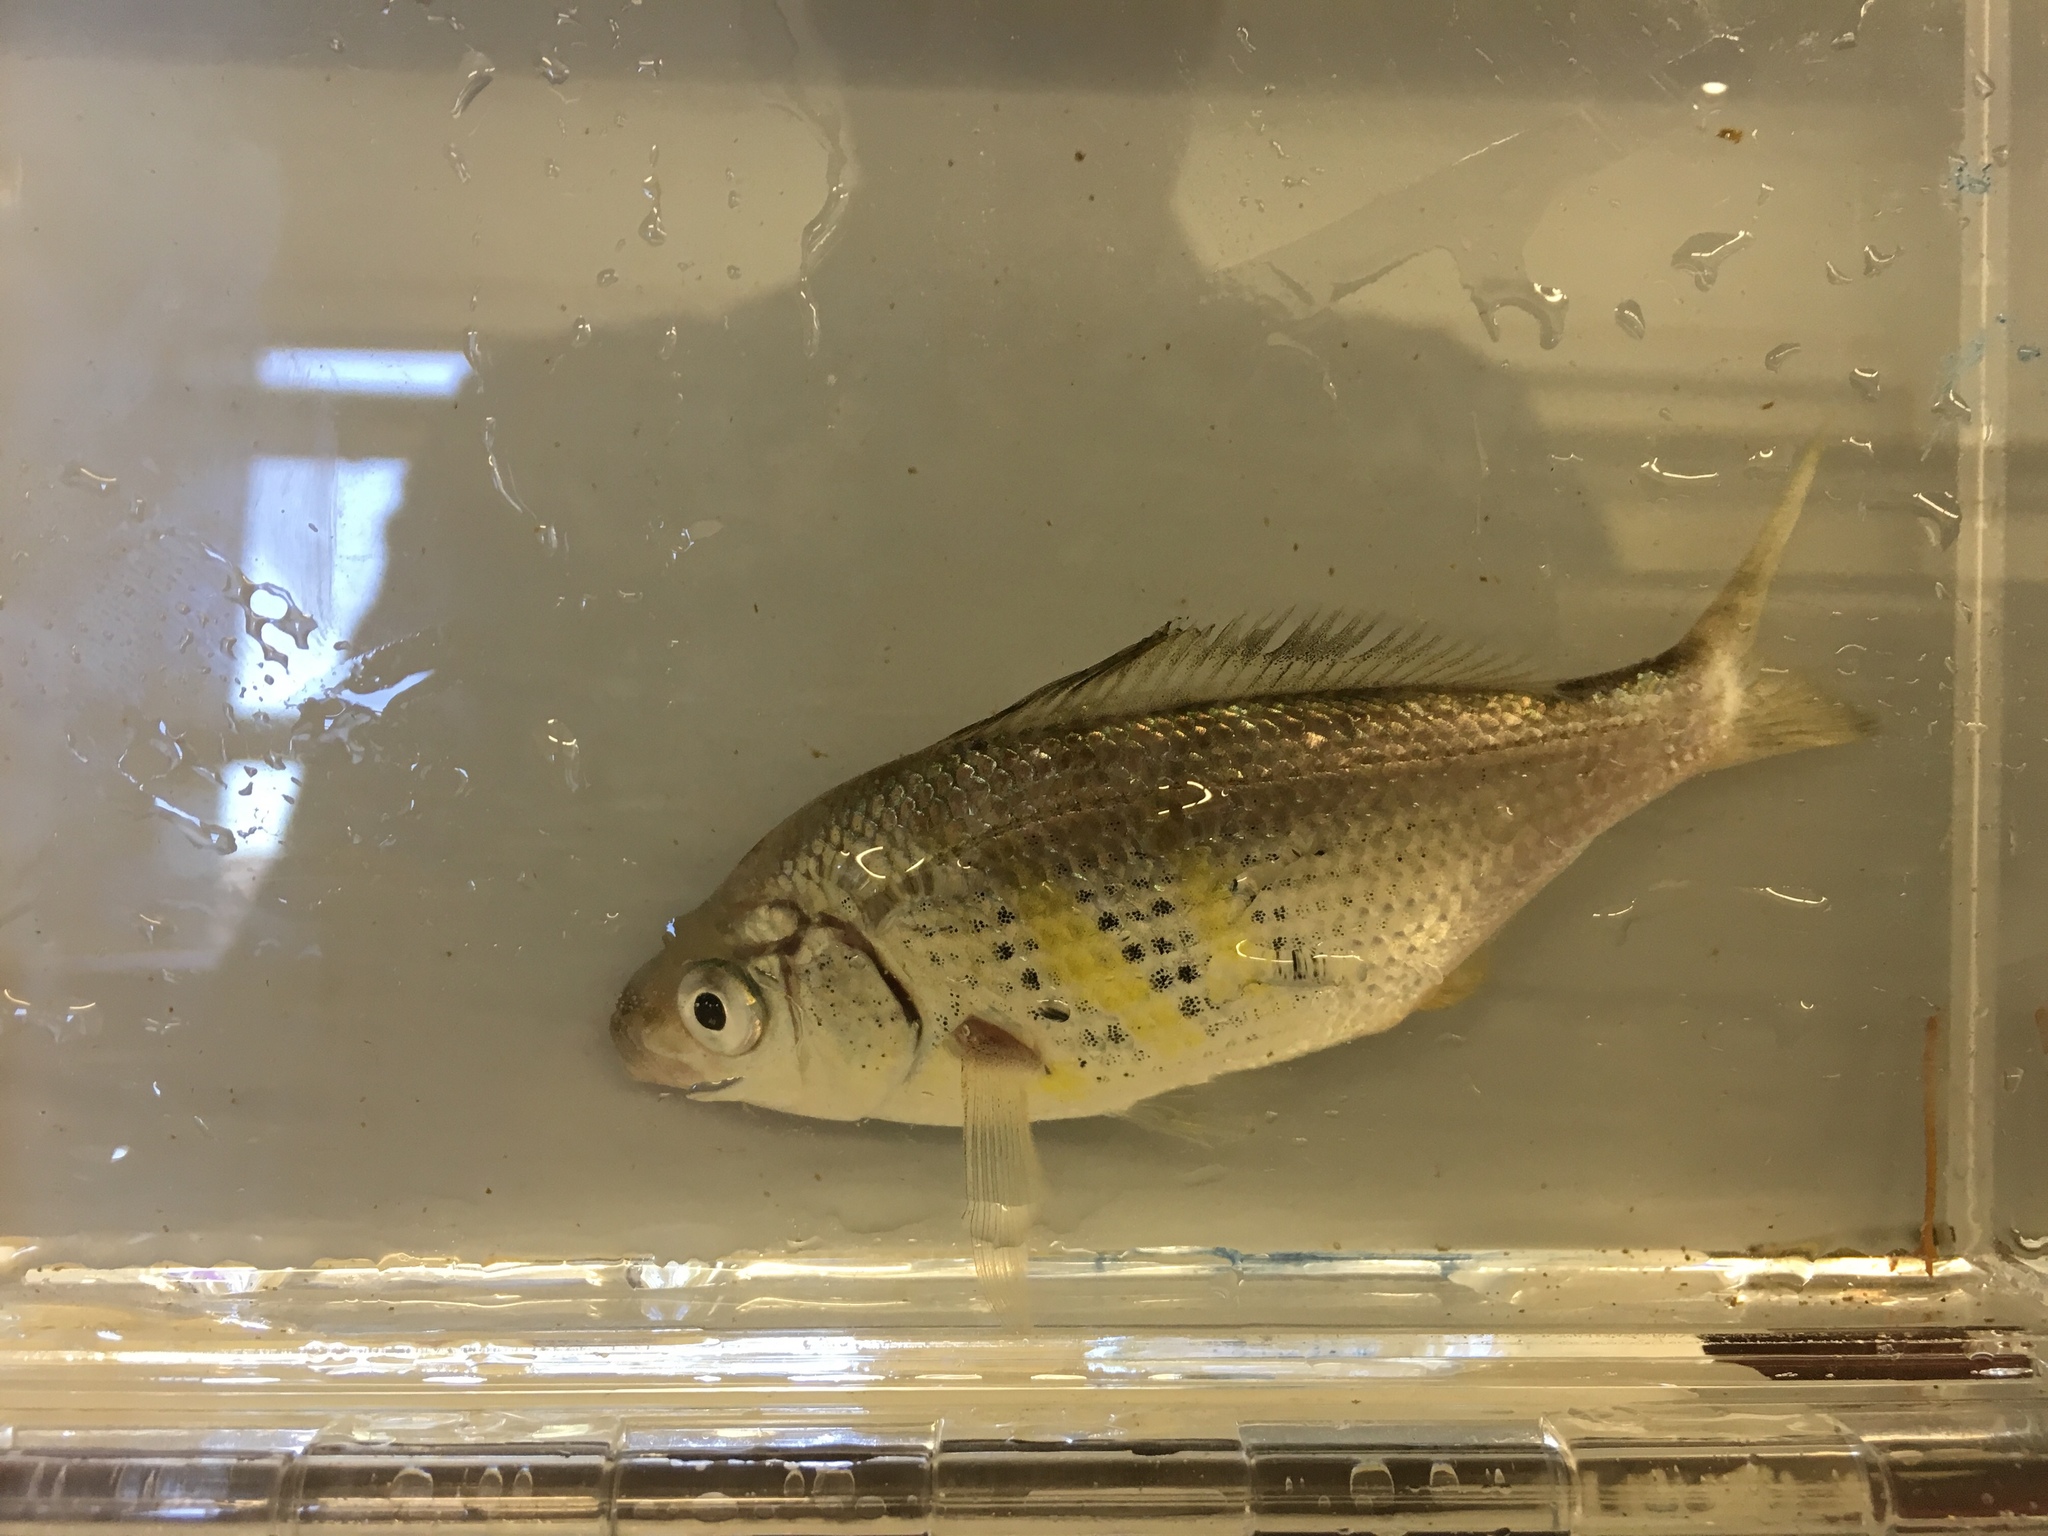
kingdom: Animalia
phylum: Chordata
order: Perciformes
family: Embiotocidae
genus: Cymatogaster
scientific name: Cymatogaster aggregata
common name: Shiner perch
